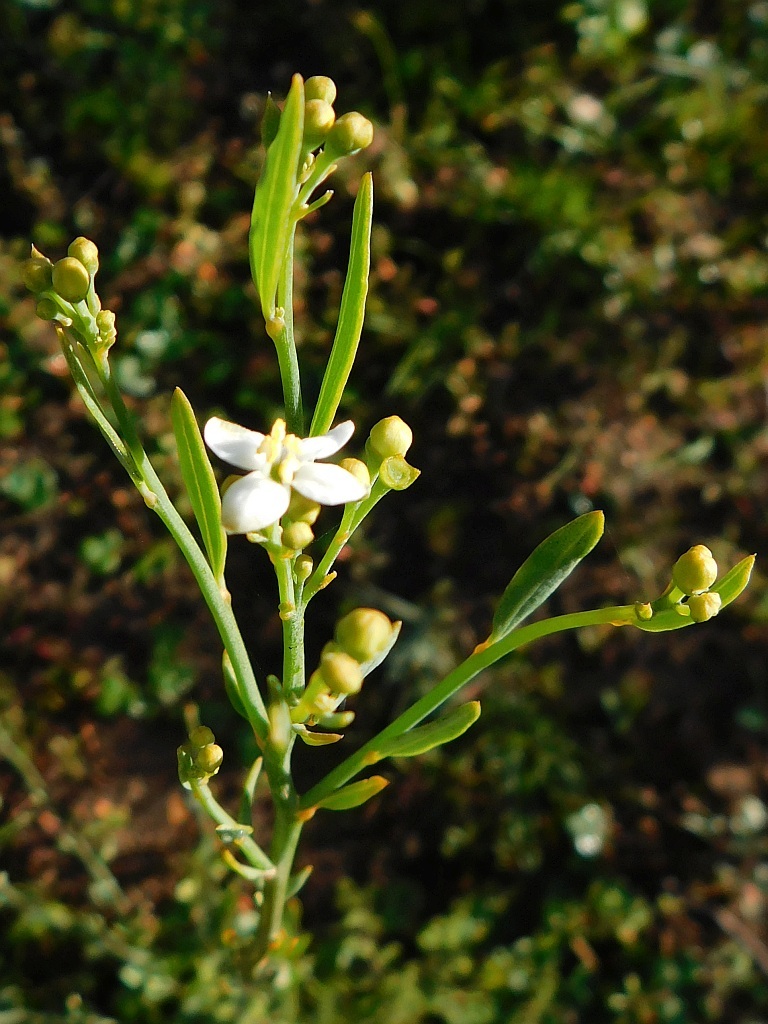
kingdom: Plantae
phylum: Tracheophyta
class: Magnoliopsida
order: Solanales
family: Montiniaceae
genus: Montinia
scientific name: Montinia caryophyllacea
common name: Wild clove-bush
